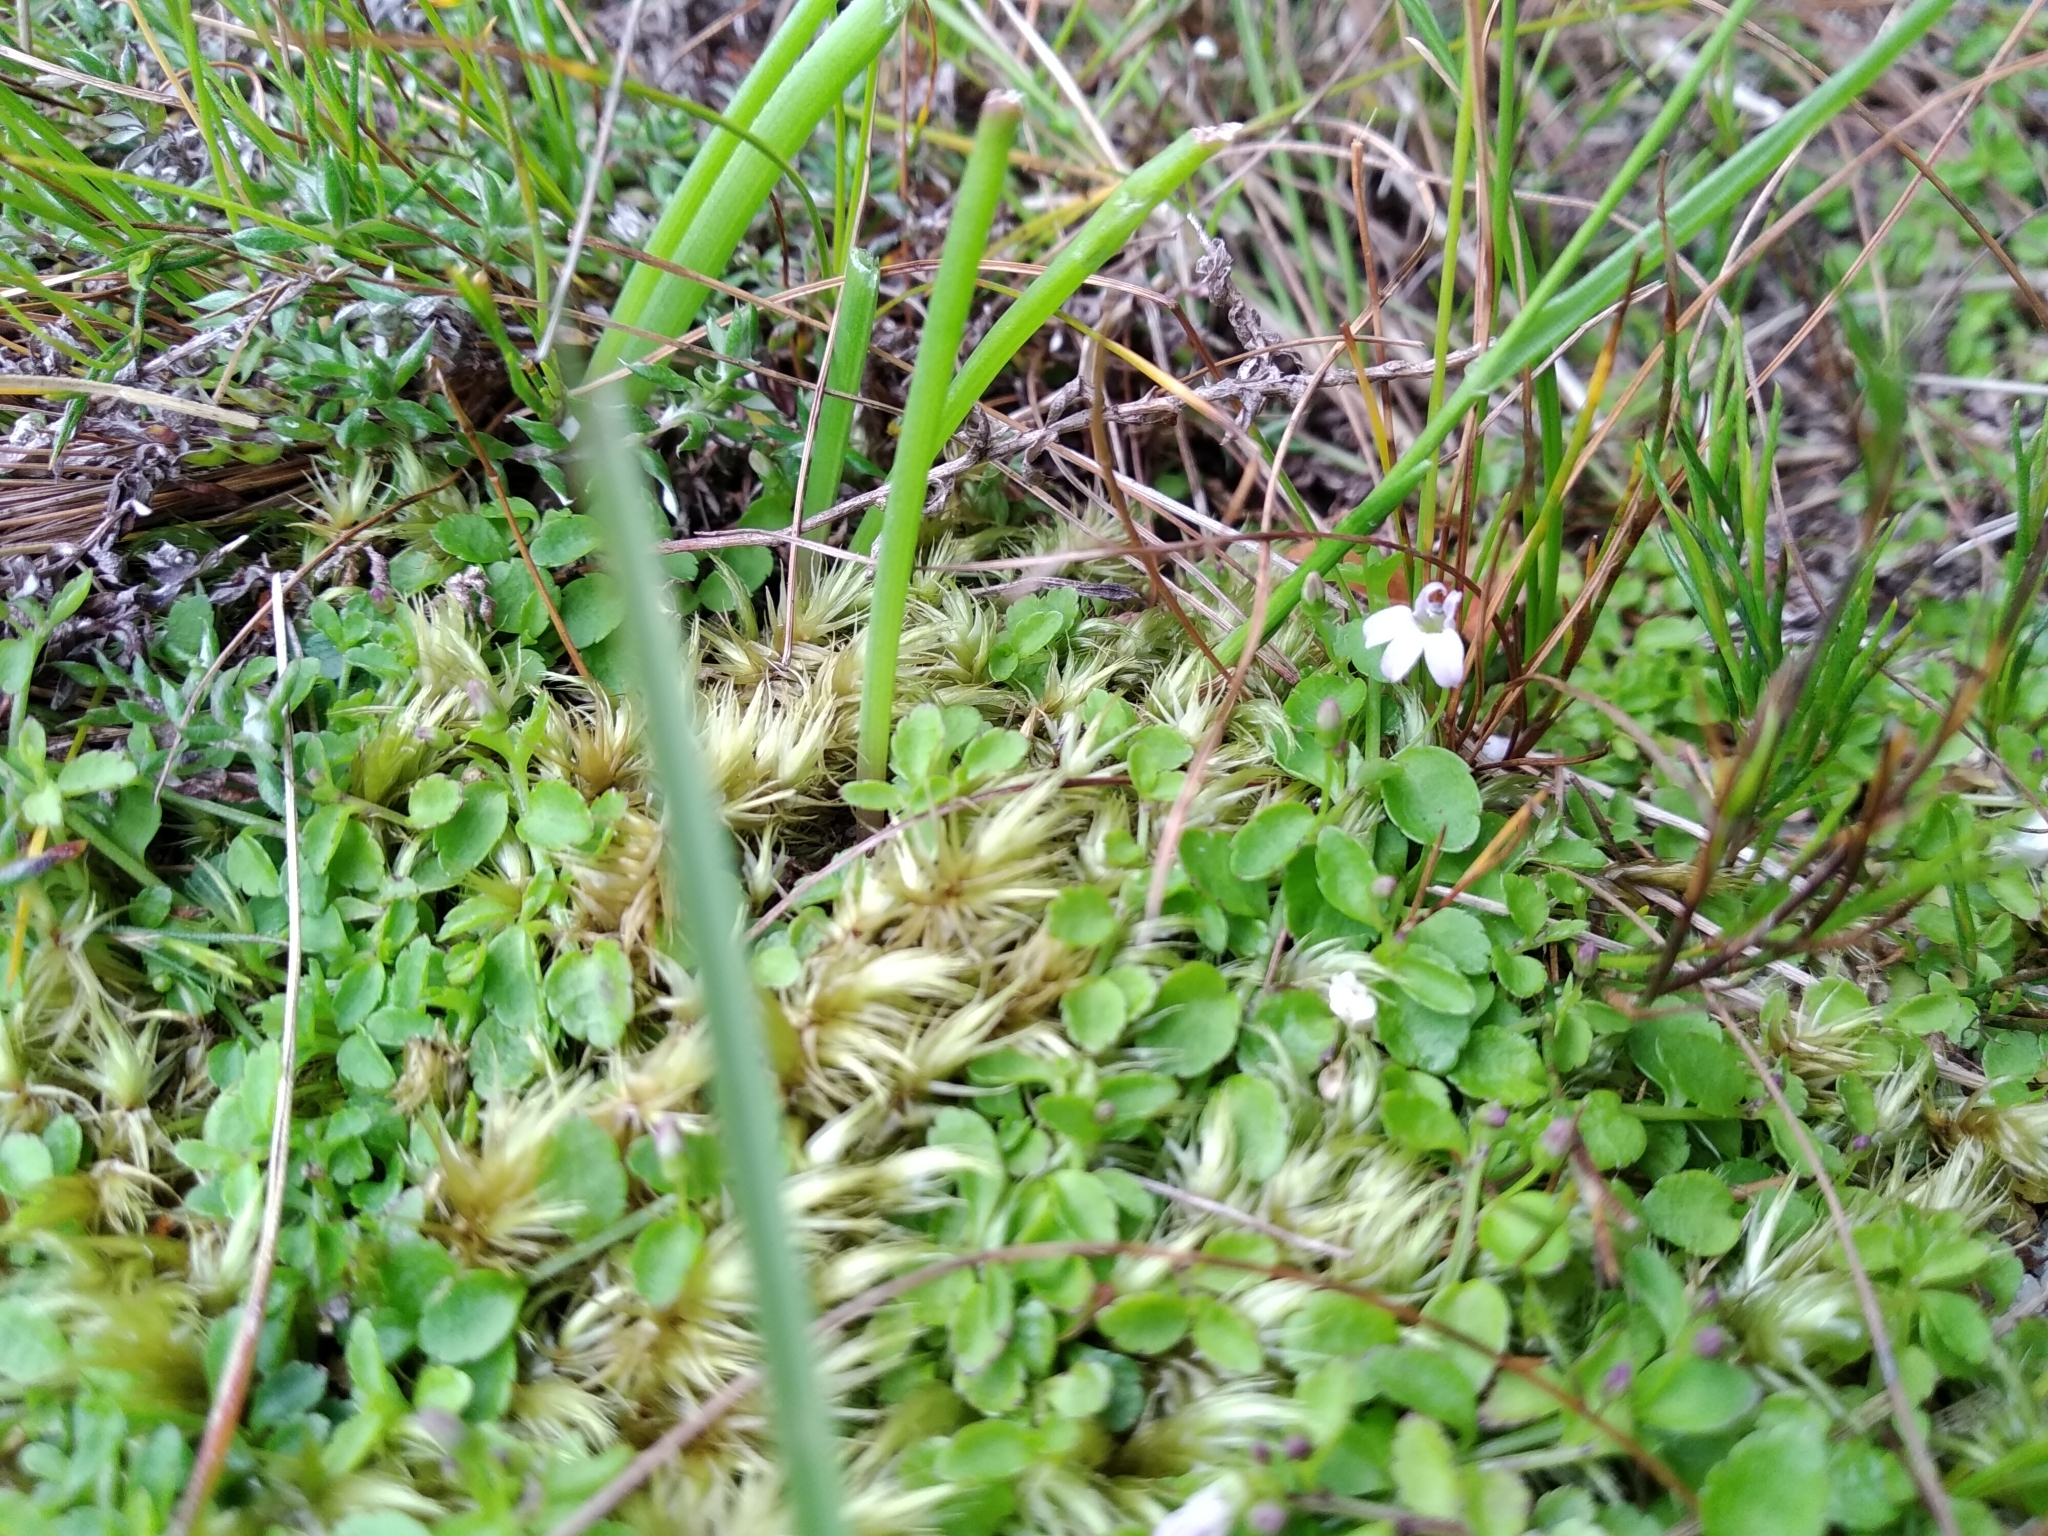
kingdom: Plantae
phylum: Tracheophyta
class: Magnoliopsida
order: Asterales
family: Campanulaceae
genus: Unigenes
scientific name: Unigenes humifusa
